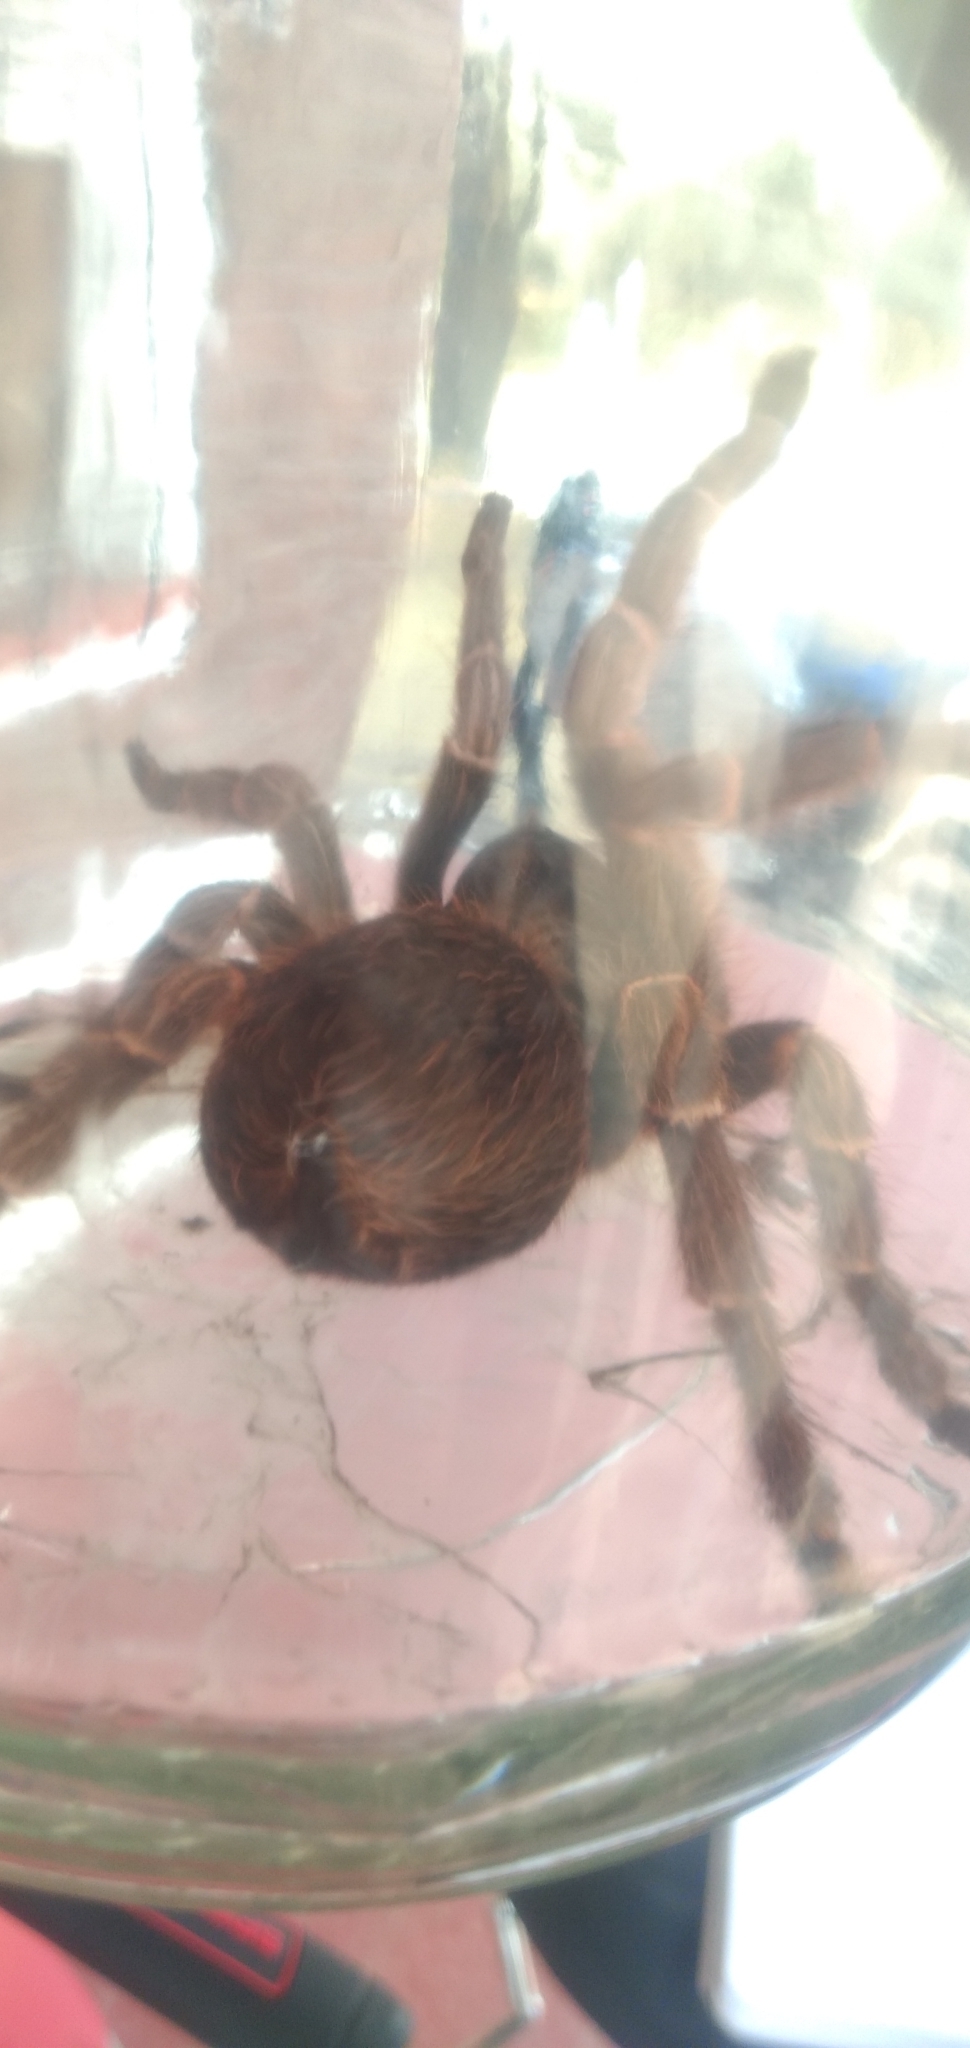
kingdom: Animalia
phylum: Arthropoda
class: Arachnida
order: Araneae
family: Theraphosidae
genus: Acanthoscurria
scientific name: Acanthoscurria cordubensis
